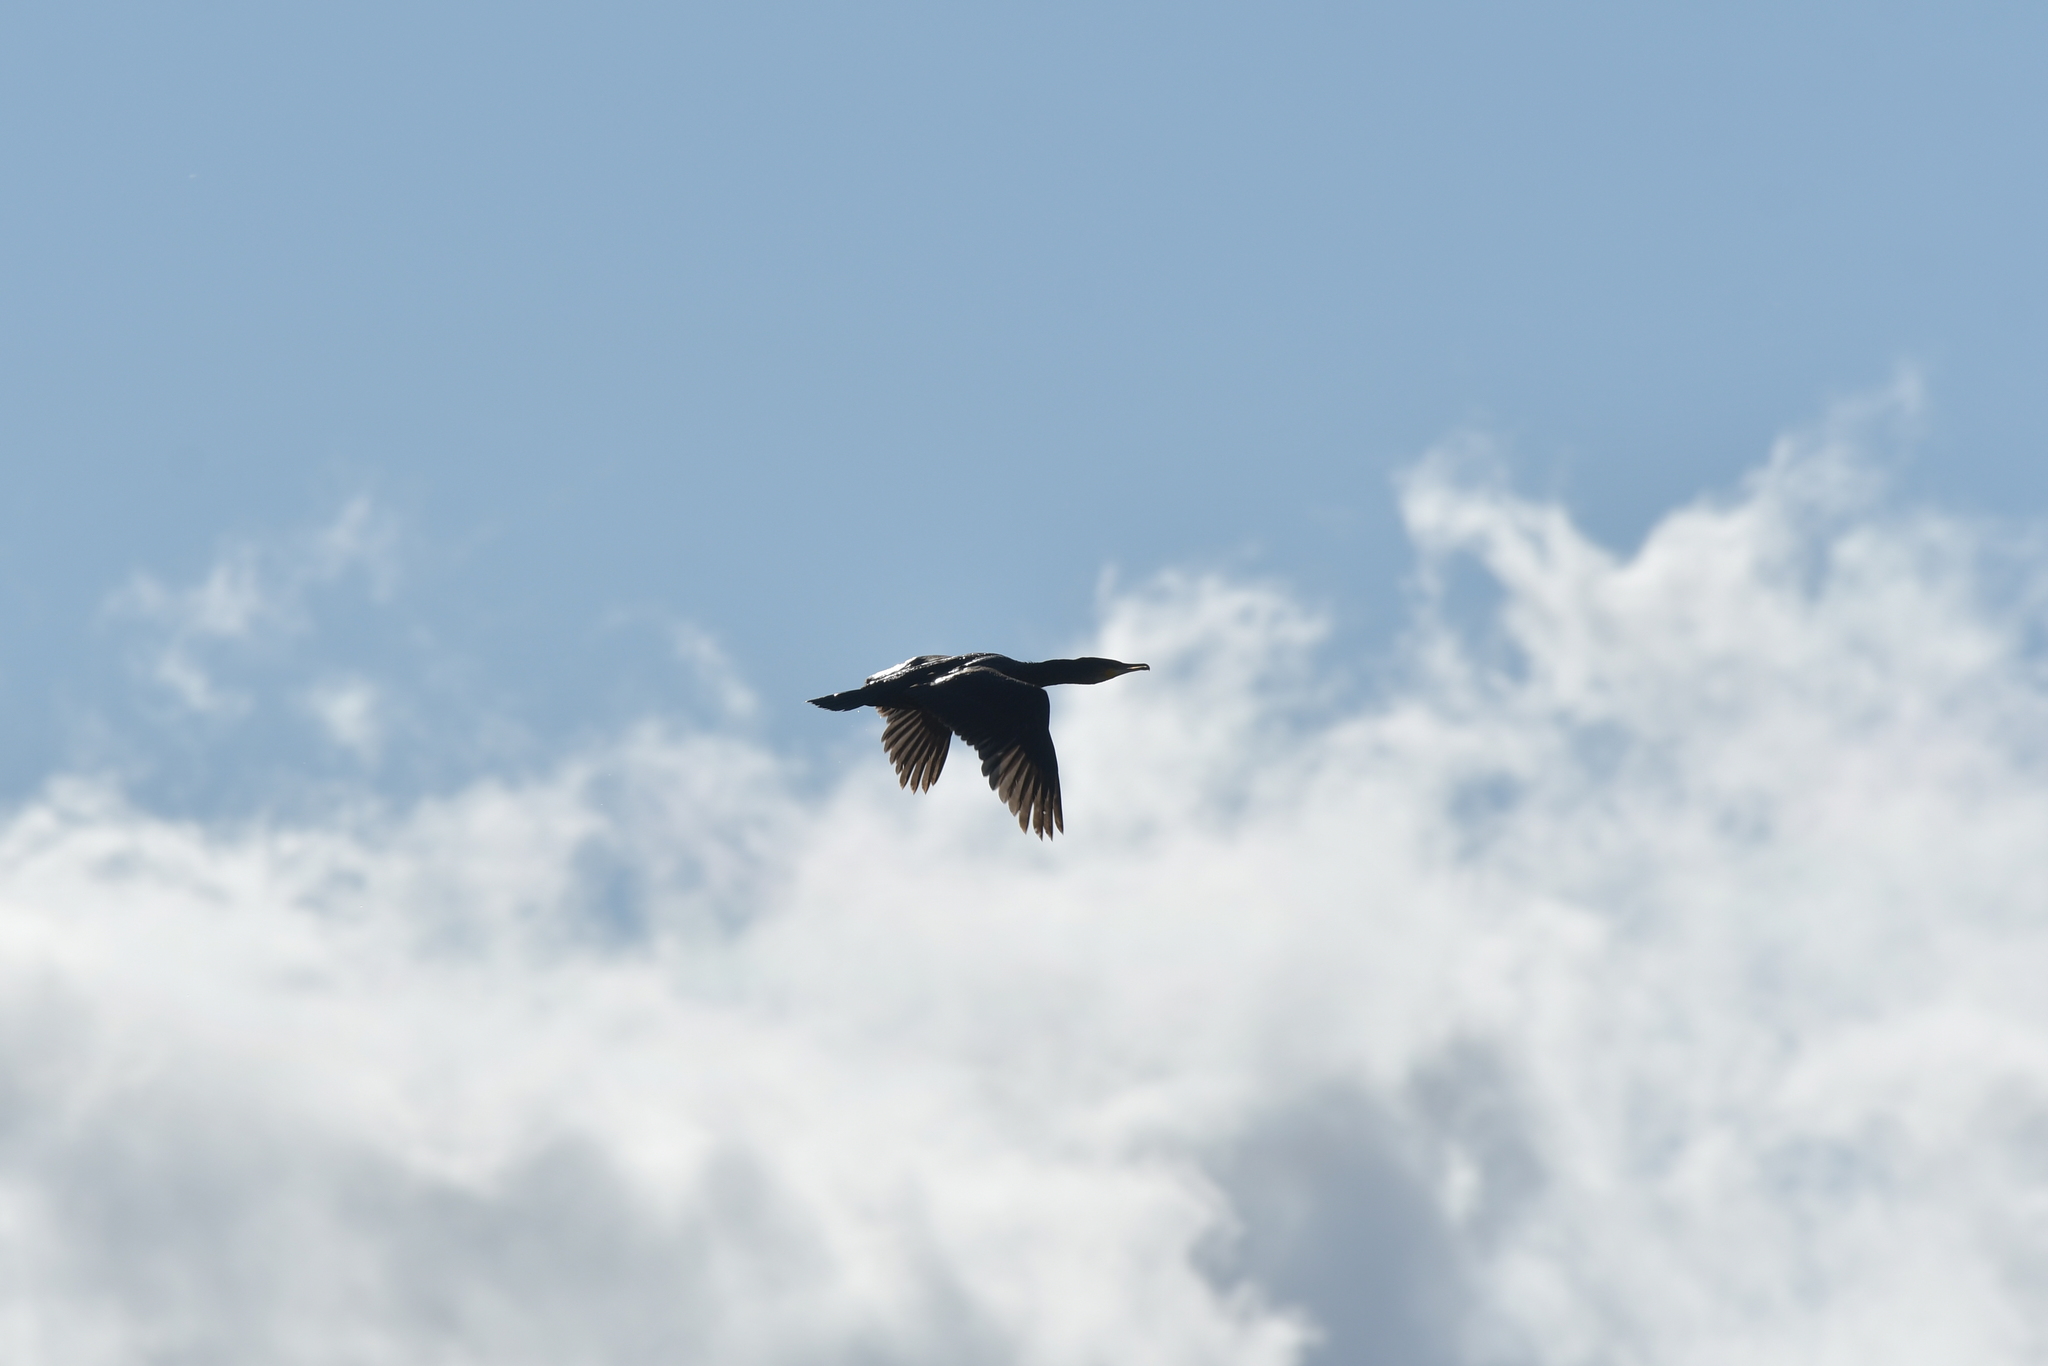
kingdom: Animalia
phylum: Chordata
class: Aves
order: Suliformes
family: Phalacrocoracidae
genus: Phalacrocorax
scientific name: Phalacrocorax carbo
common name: Great cormorant
